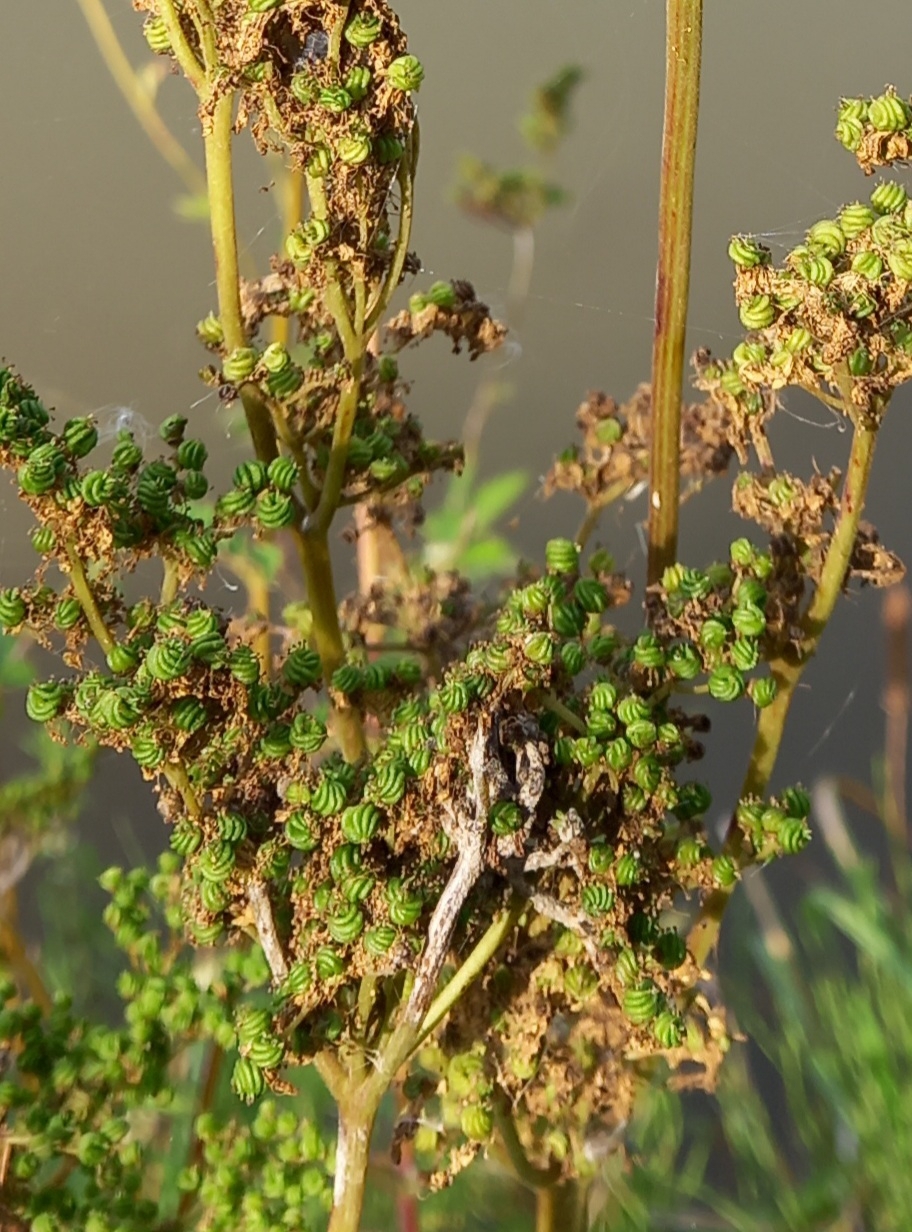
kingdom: Plantae
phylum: Tracheophyta
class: Magnoliopsida
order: Rosales
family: Rosaceae
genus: Filipendula
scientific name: Filipendula ulmaria
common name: Meadowsweet
